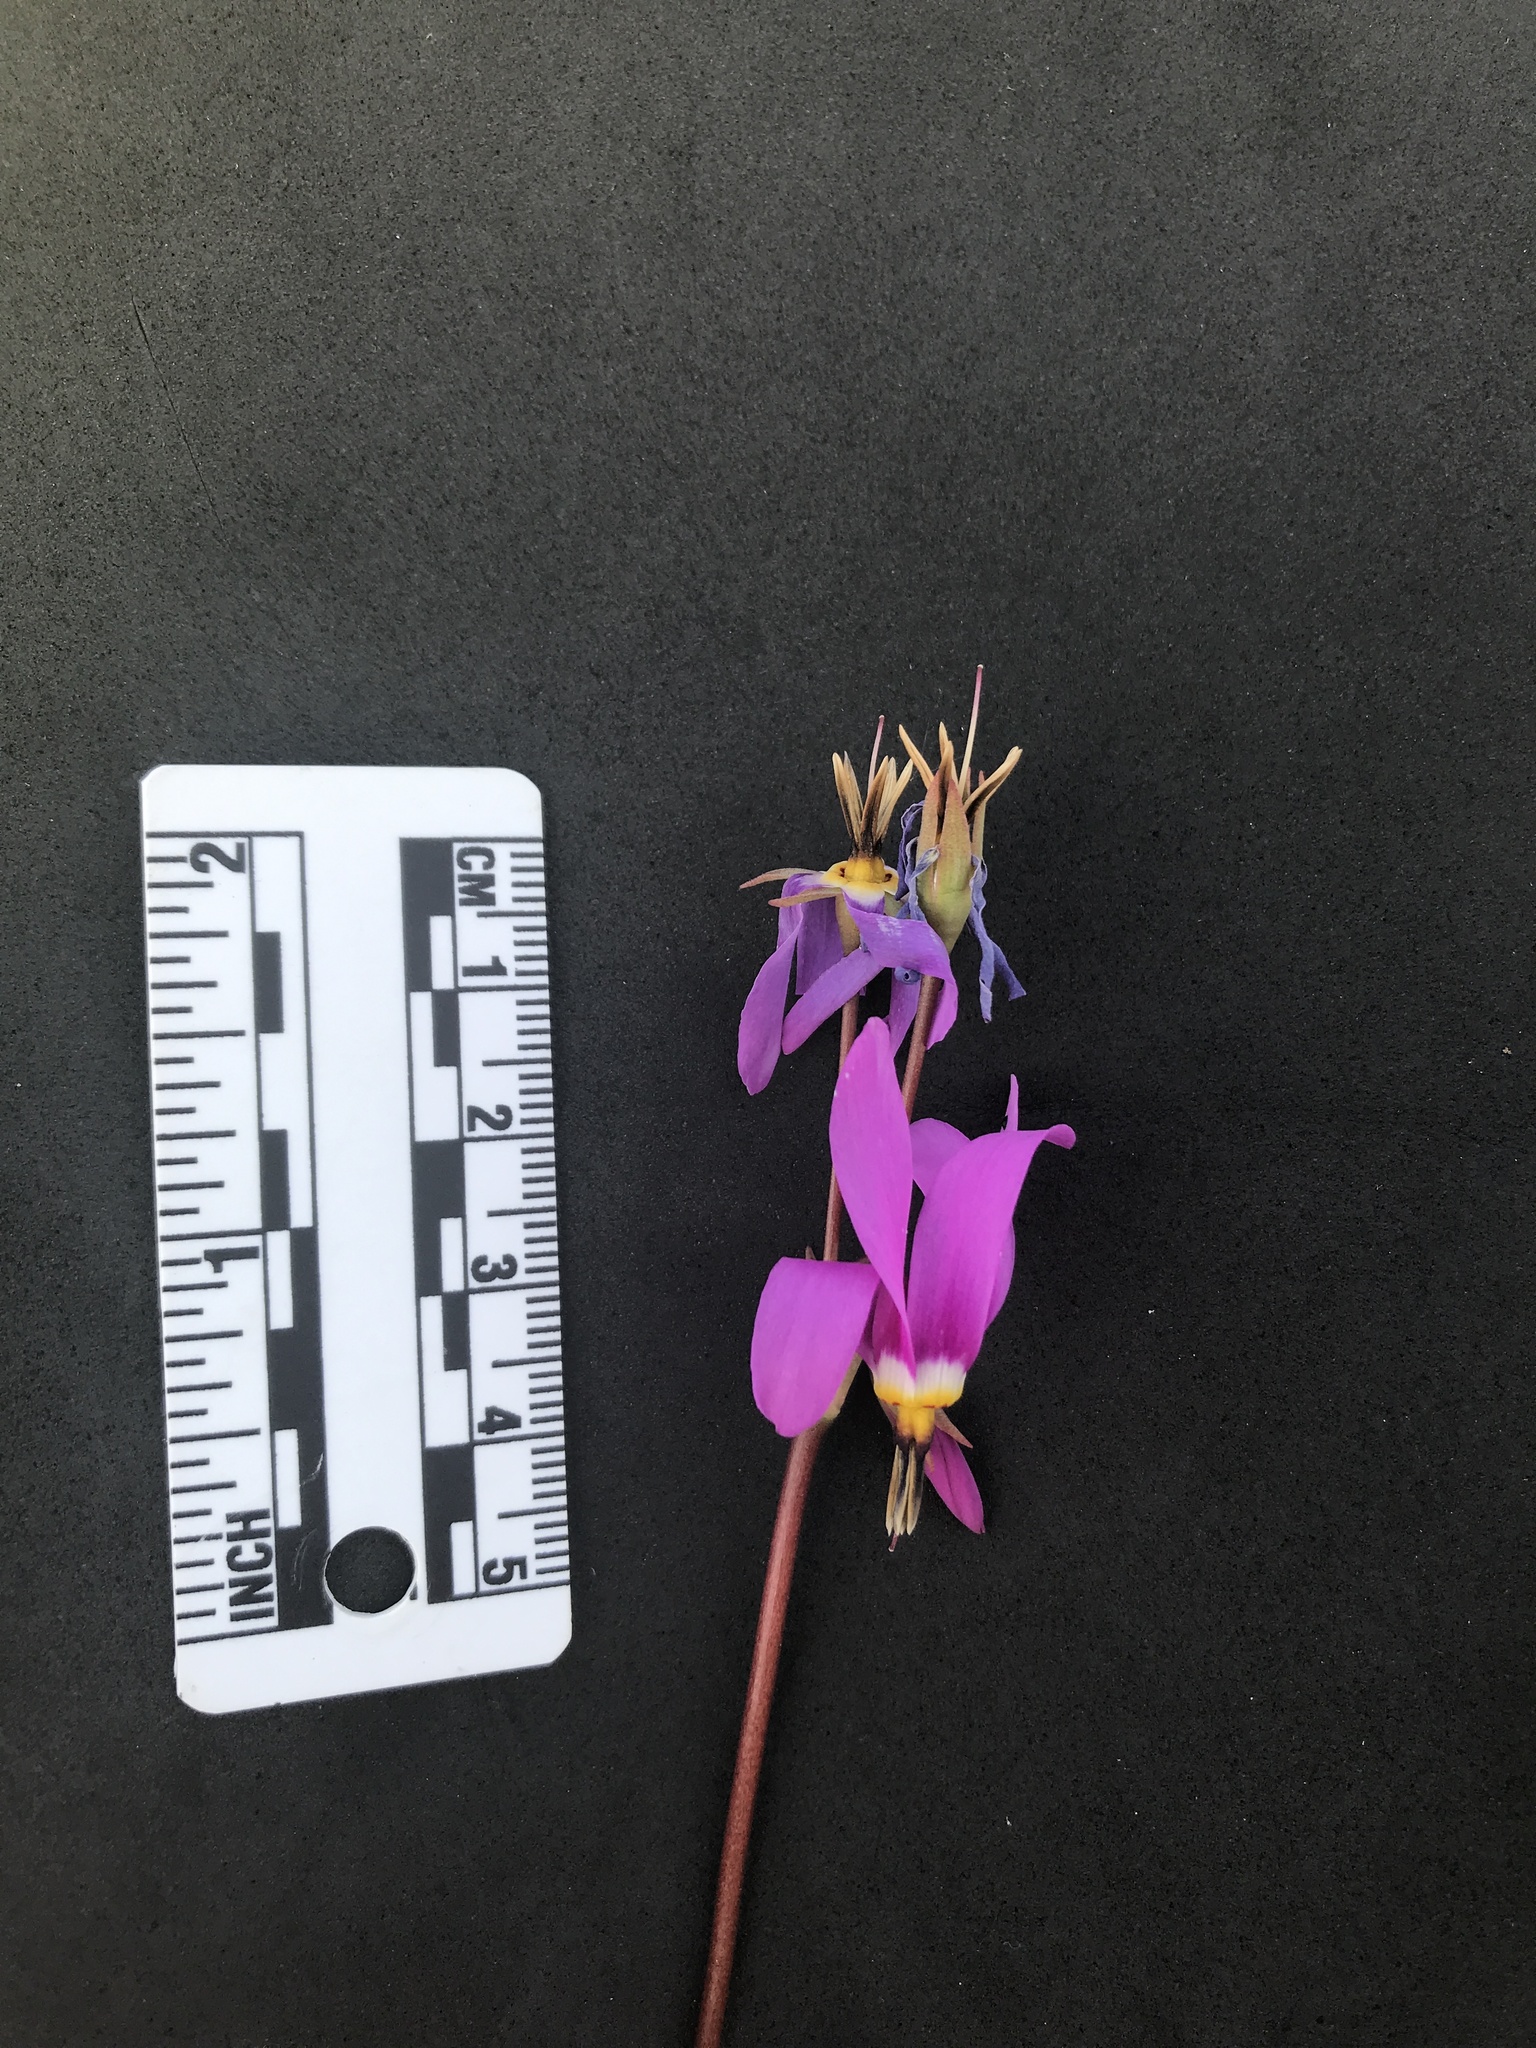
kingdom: Plantae
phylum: Tracheophyta
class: Magnoliopsida
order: Ericales
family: Primulaceae
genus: Dodecatheon
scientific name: Dodecatheon pulchellum
